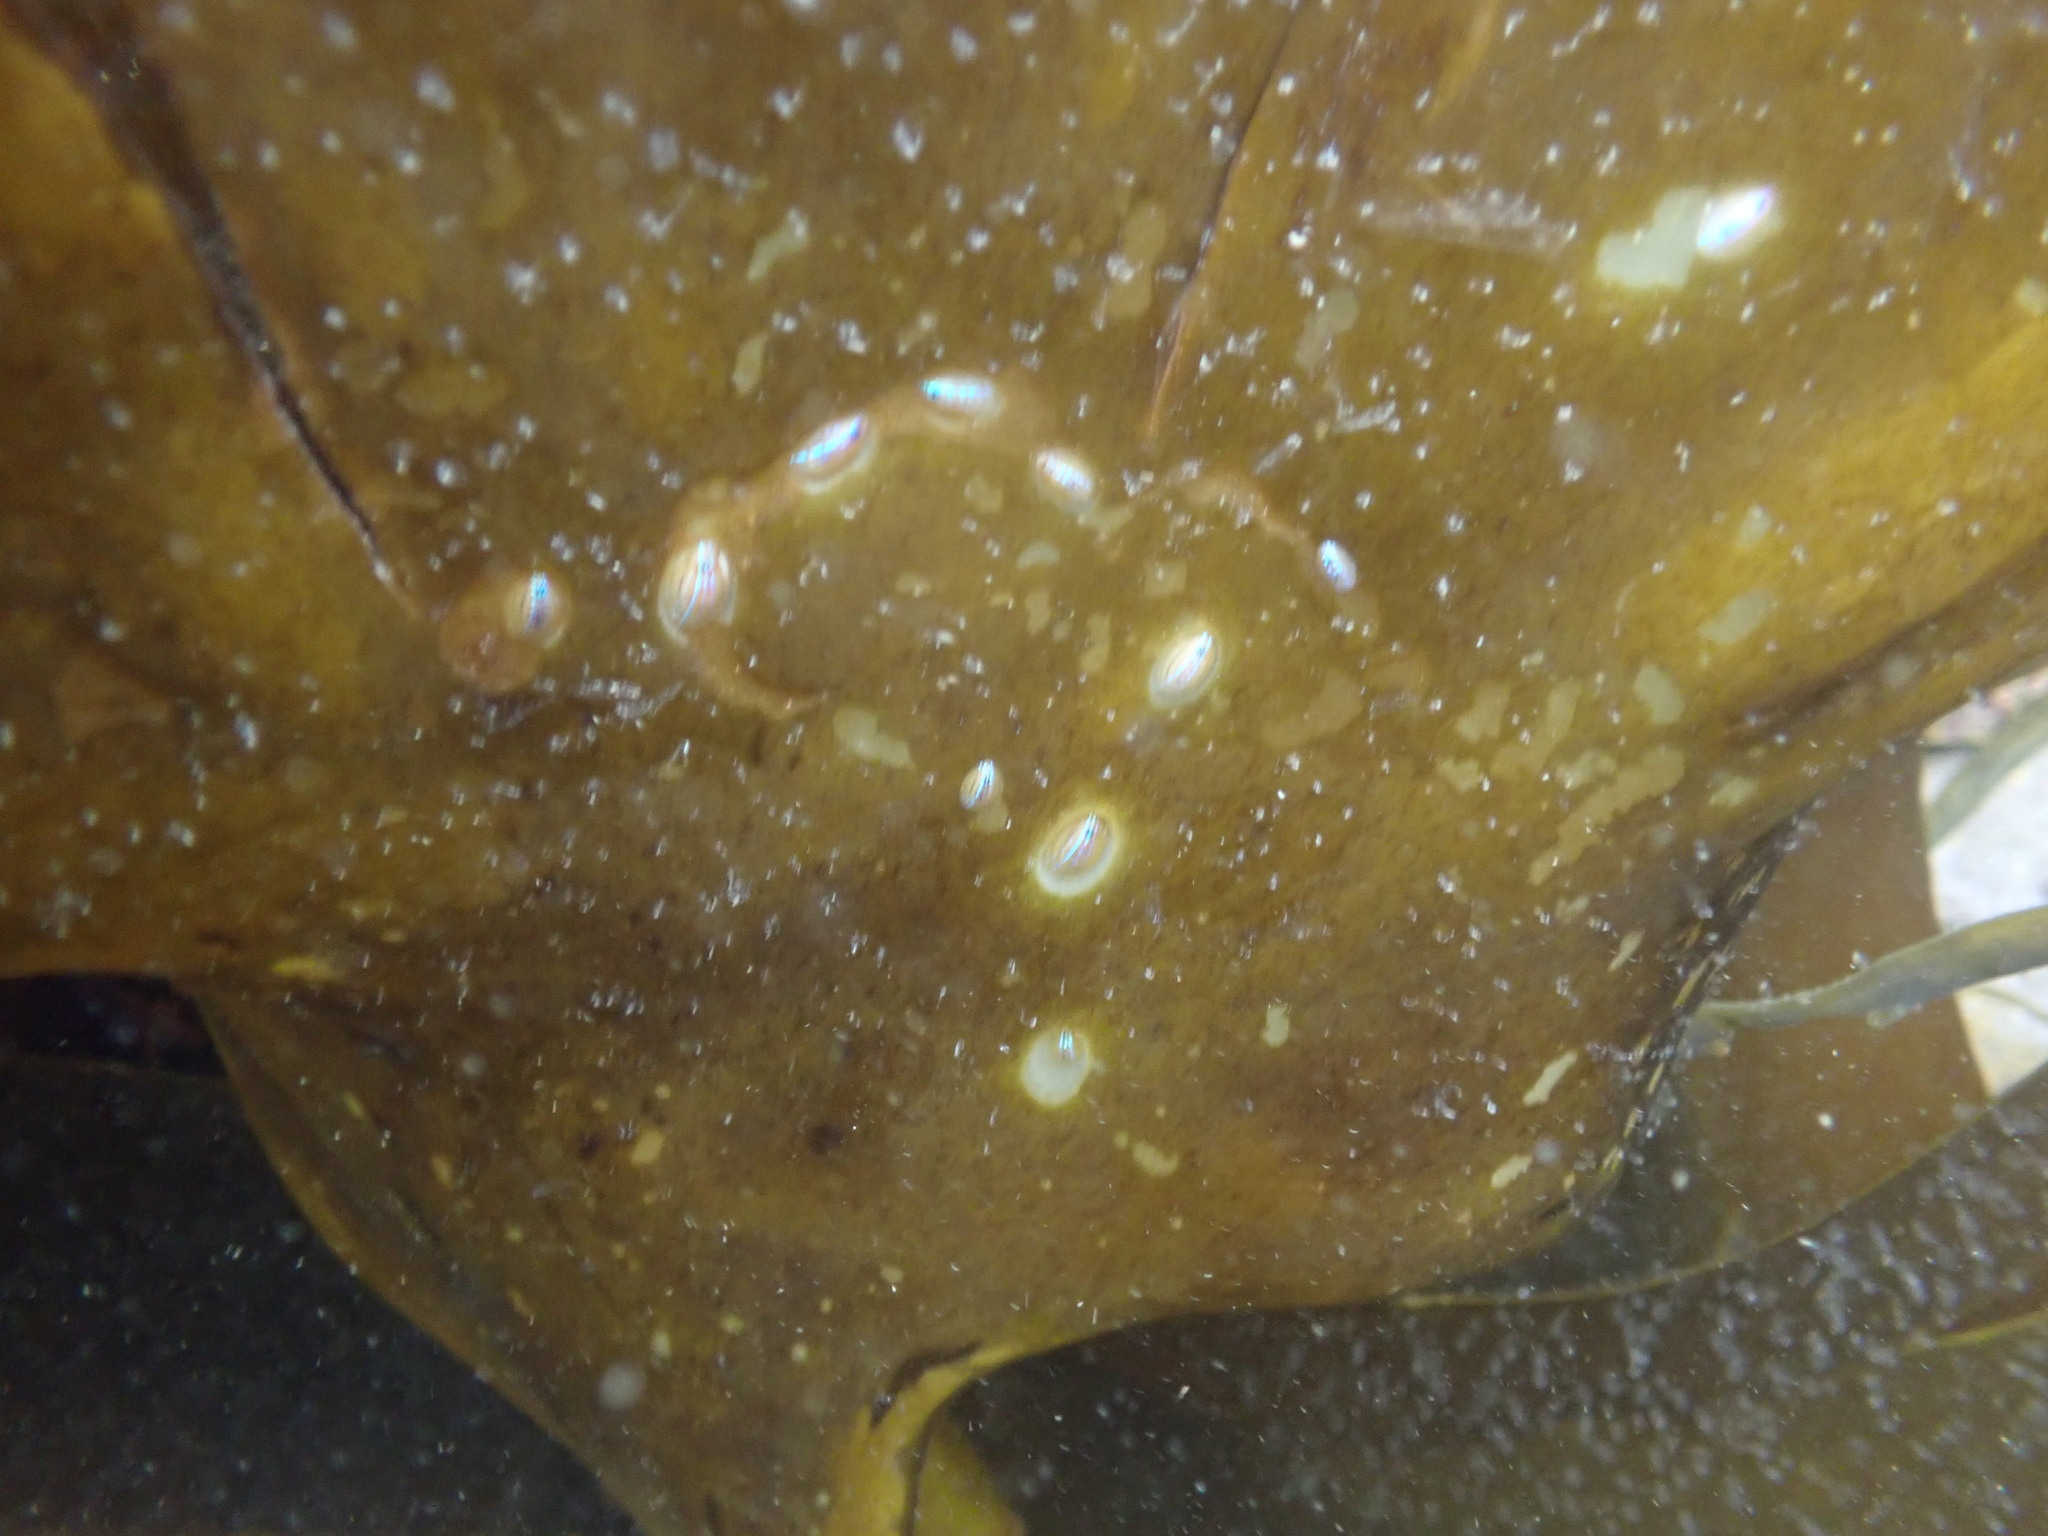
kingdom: Animalia
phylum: Mollusca
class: Gastropoda
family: Patellidae
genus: Patella
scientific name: Patella pellucida
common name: Blue-rayed limpet
